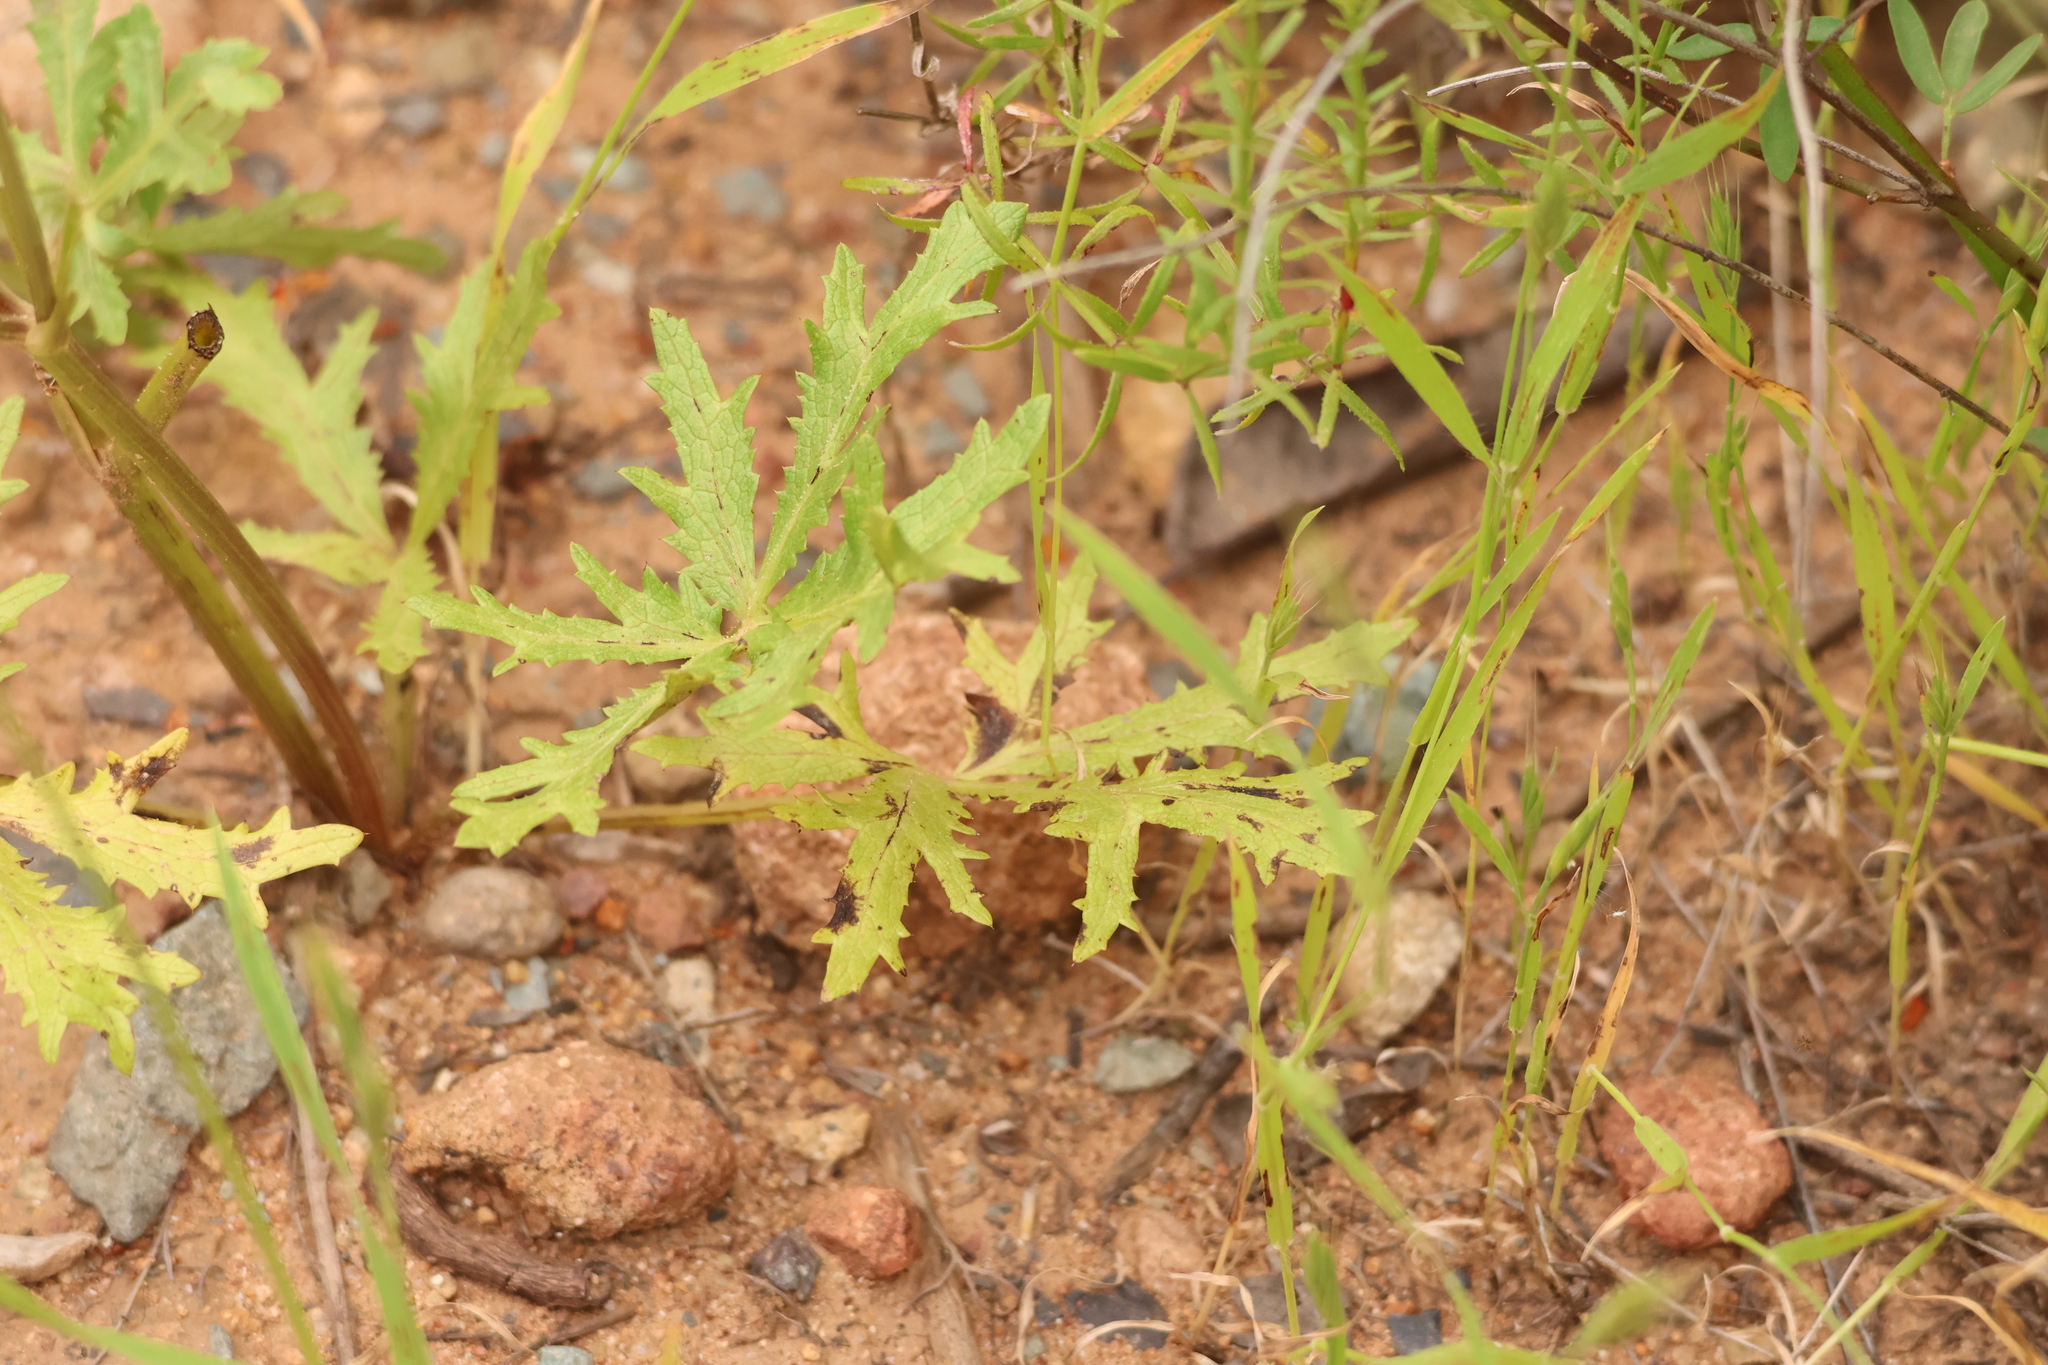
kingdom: Plantae
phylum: Tracheophyta
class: Magnoliopsida
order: Apiales
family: Apiaceae
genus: Sanicula
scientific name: Sanicula arguta
